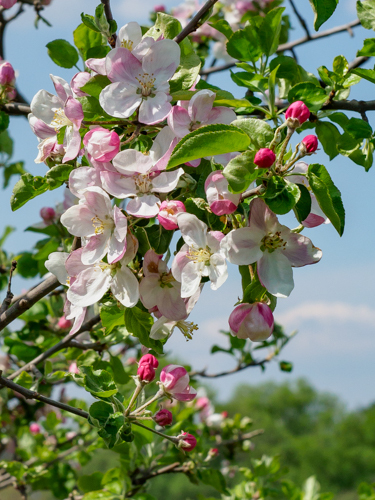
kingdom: Plantae
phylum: Tracheophyta
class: Magnoliopsida
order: Rosales
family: Rosaceae
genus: Malus
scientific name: Malus domestica
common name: Apple
